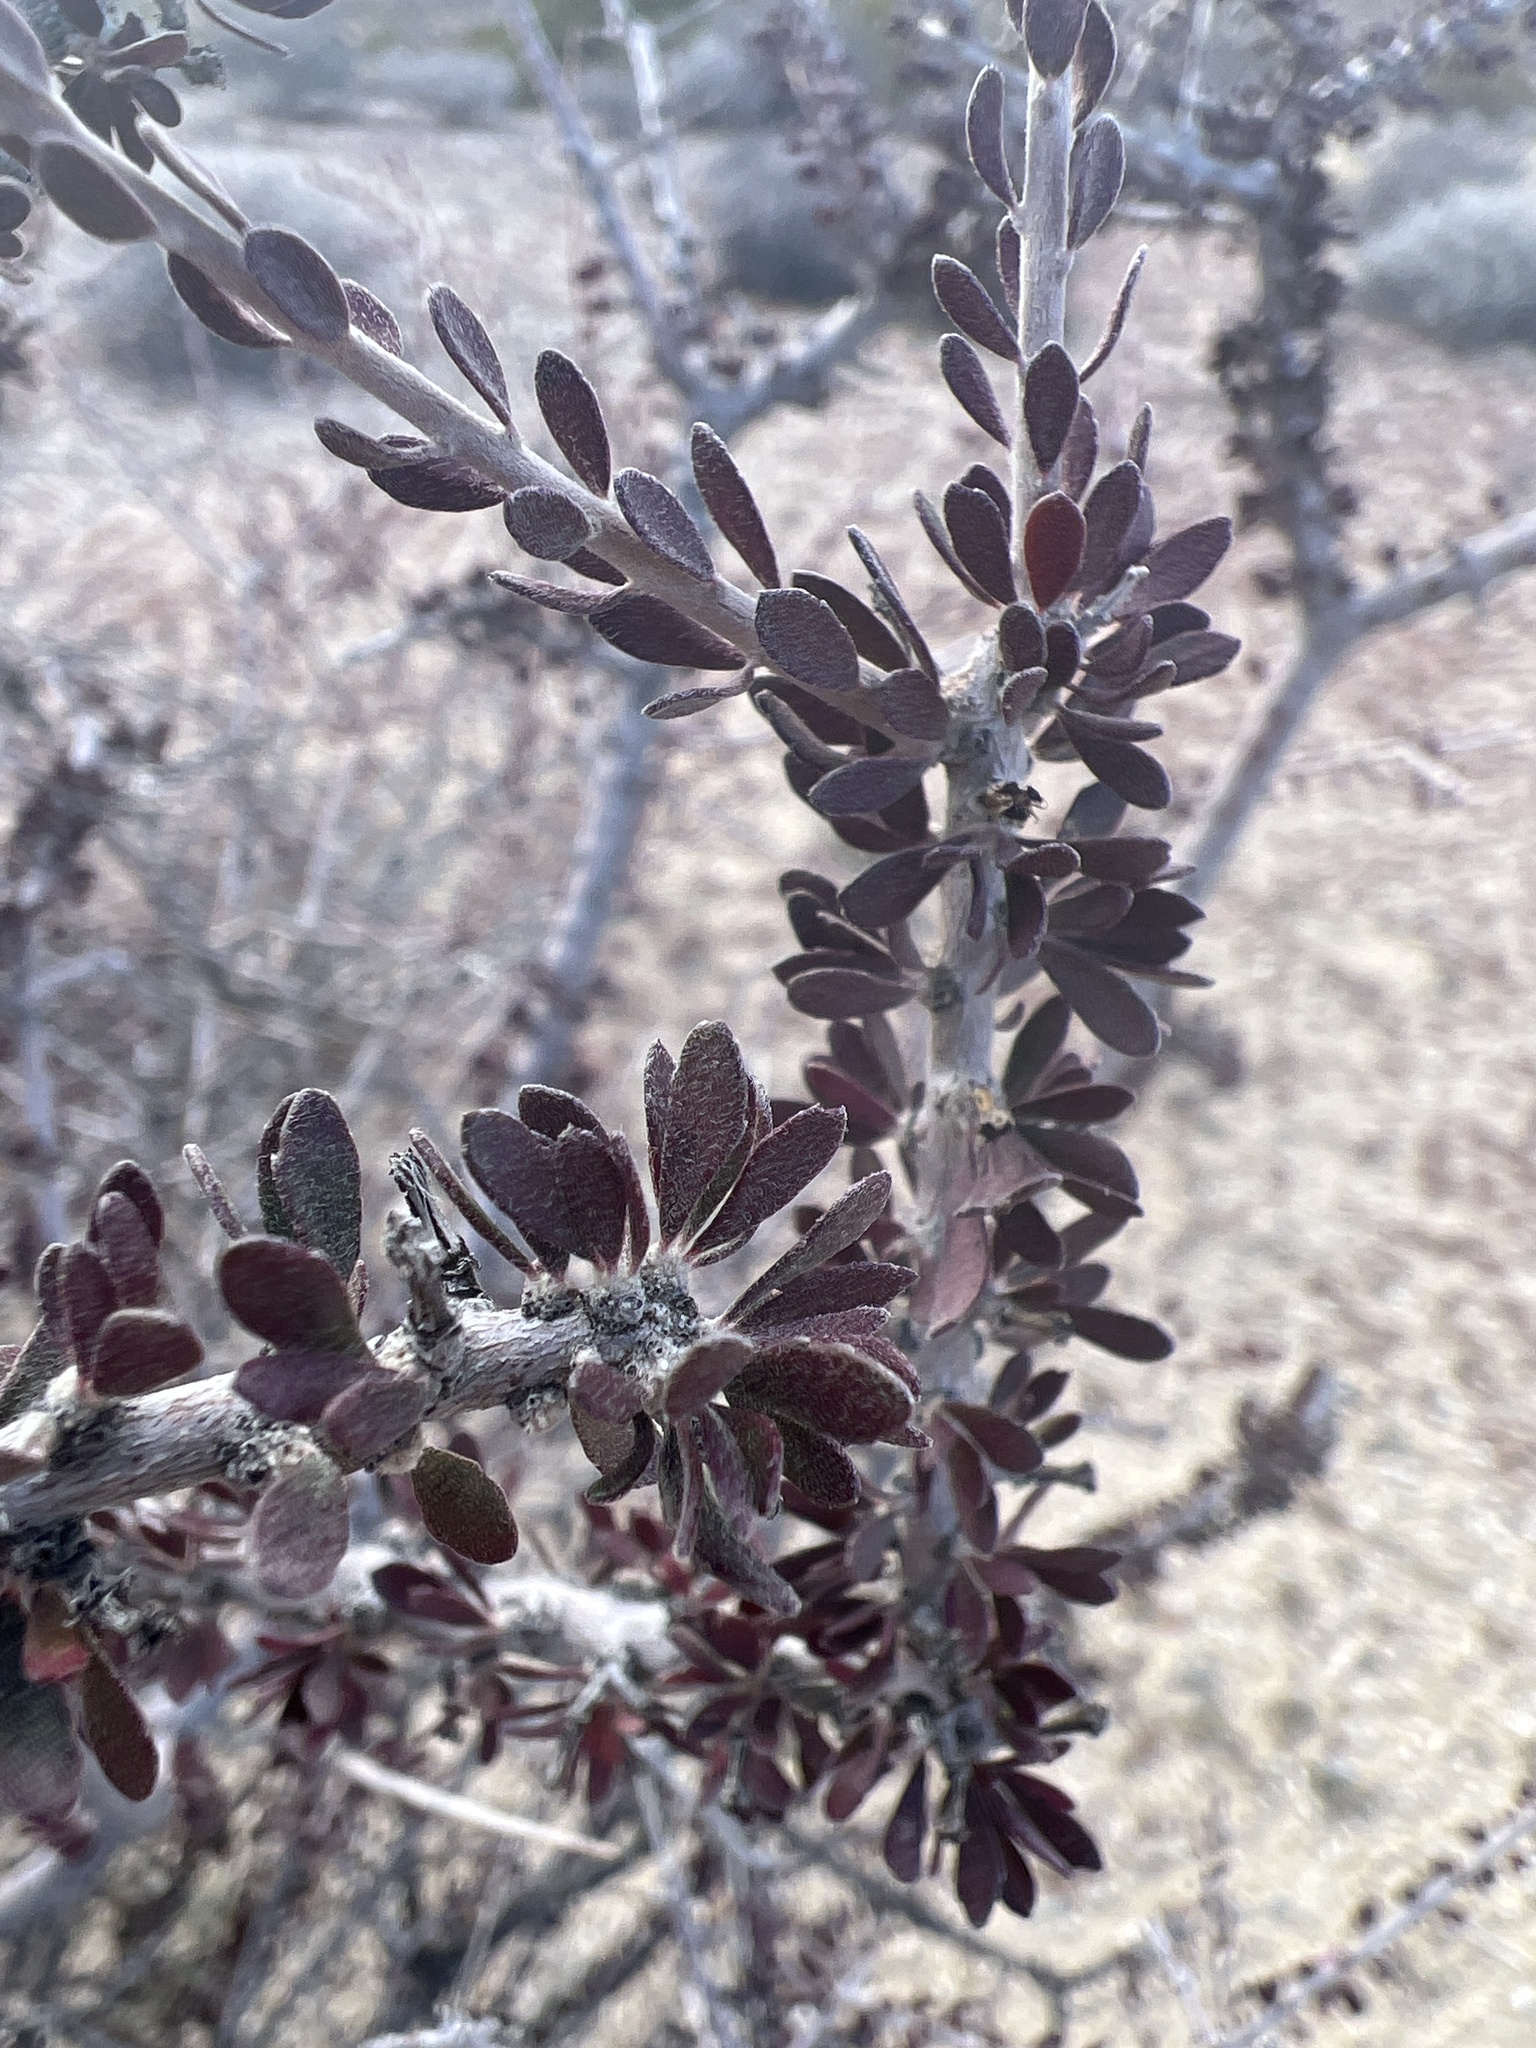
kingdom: Plantae
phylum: Tracheophyta
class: Magnoliopsida
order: Malpighiales
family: Picrodendraceae
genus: Tetracoccus
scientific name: Tetracoccus hallii
